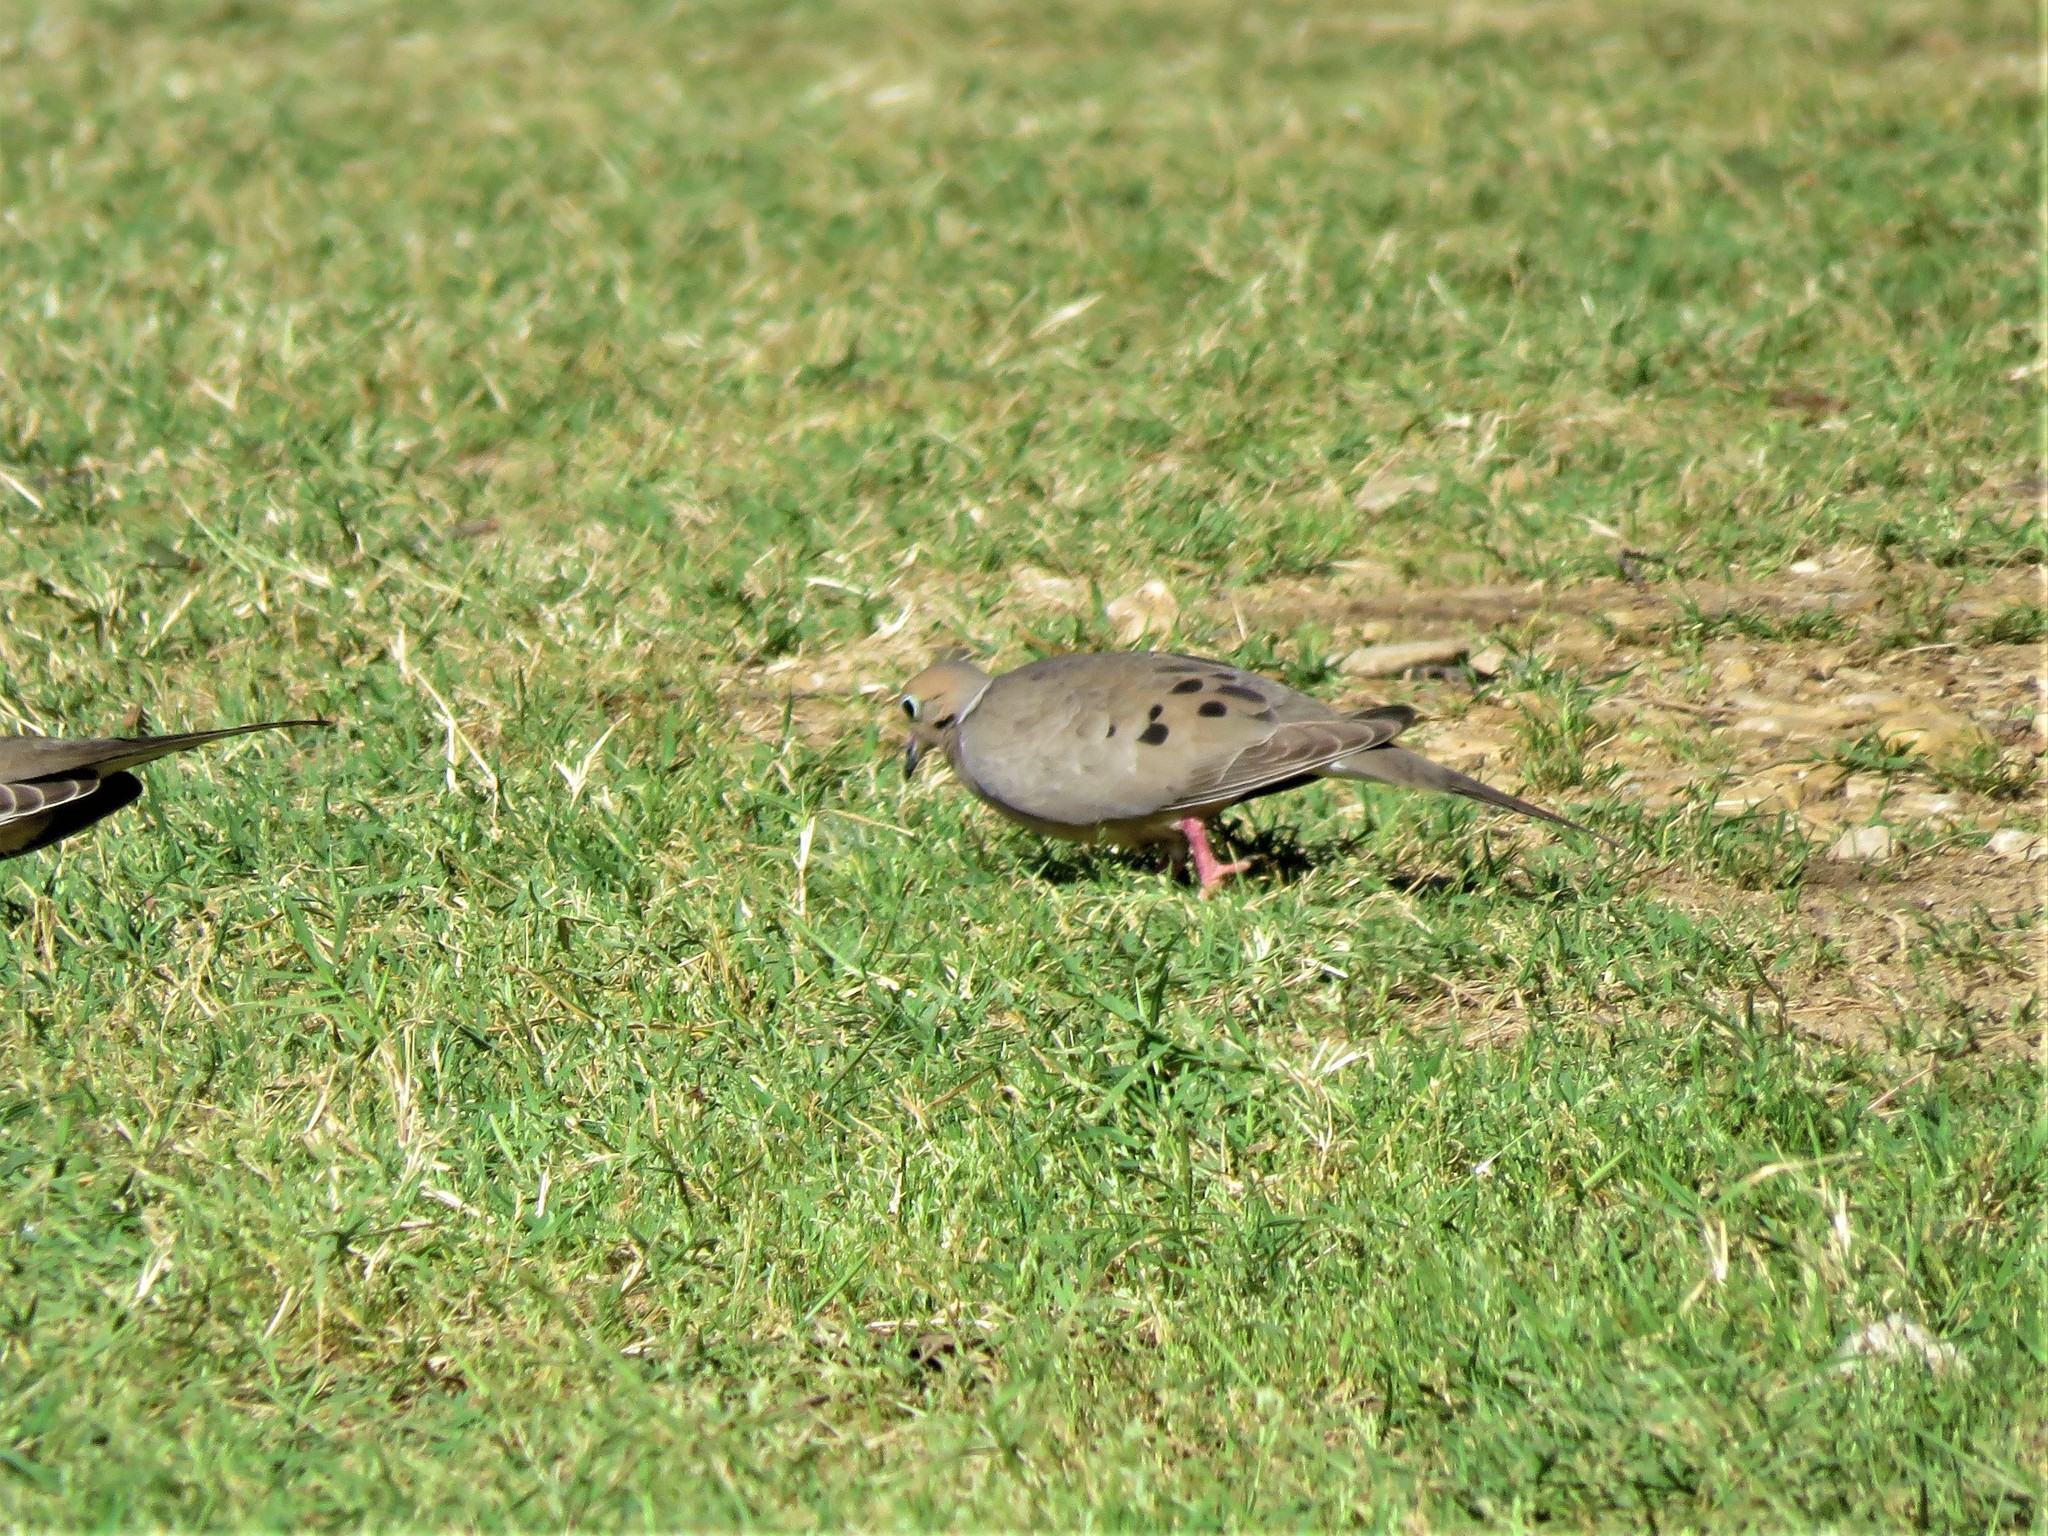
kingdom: Animalia
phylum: Chordata
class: Aves
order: Columbiformes
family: Columbidae
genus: Zenaida
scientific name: Zenaida macroura
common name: Mourning dove
